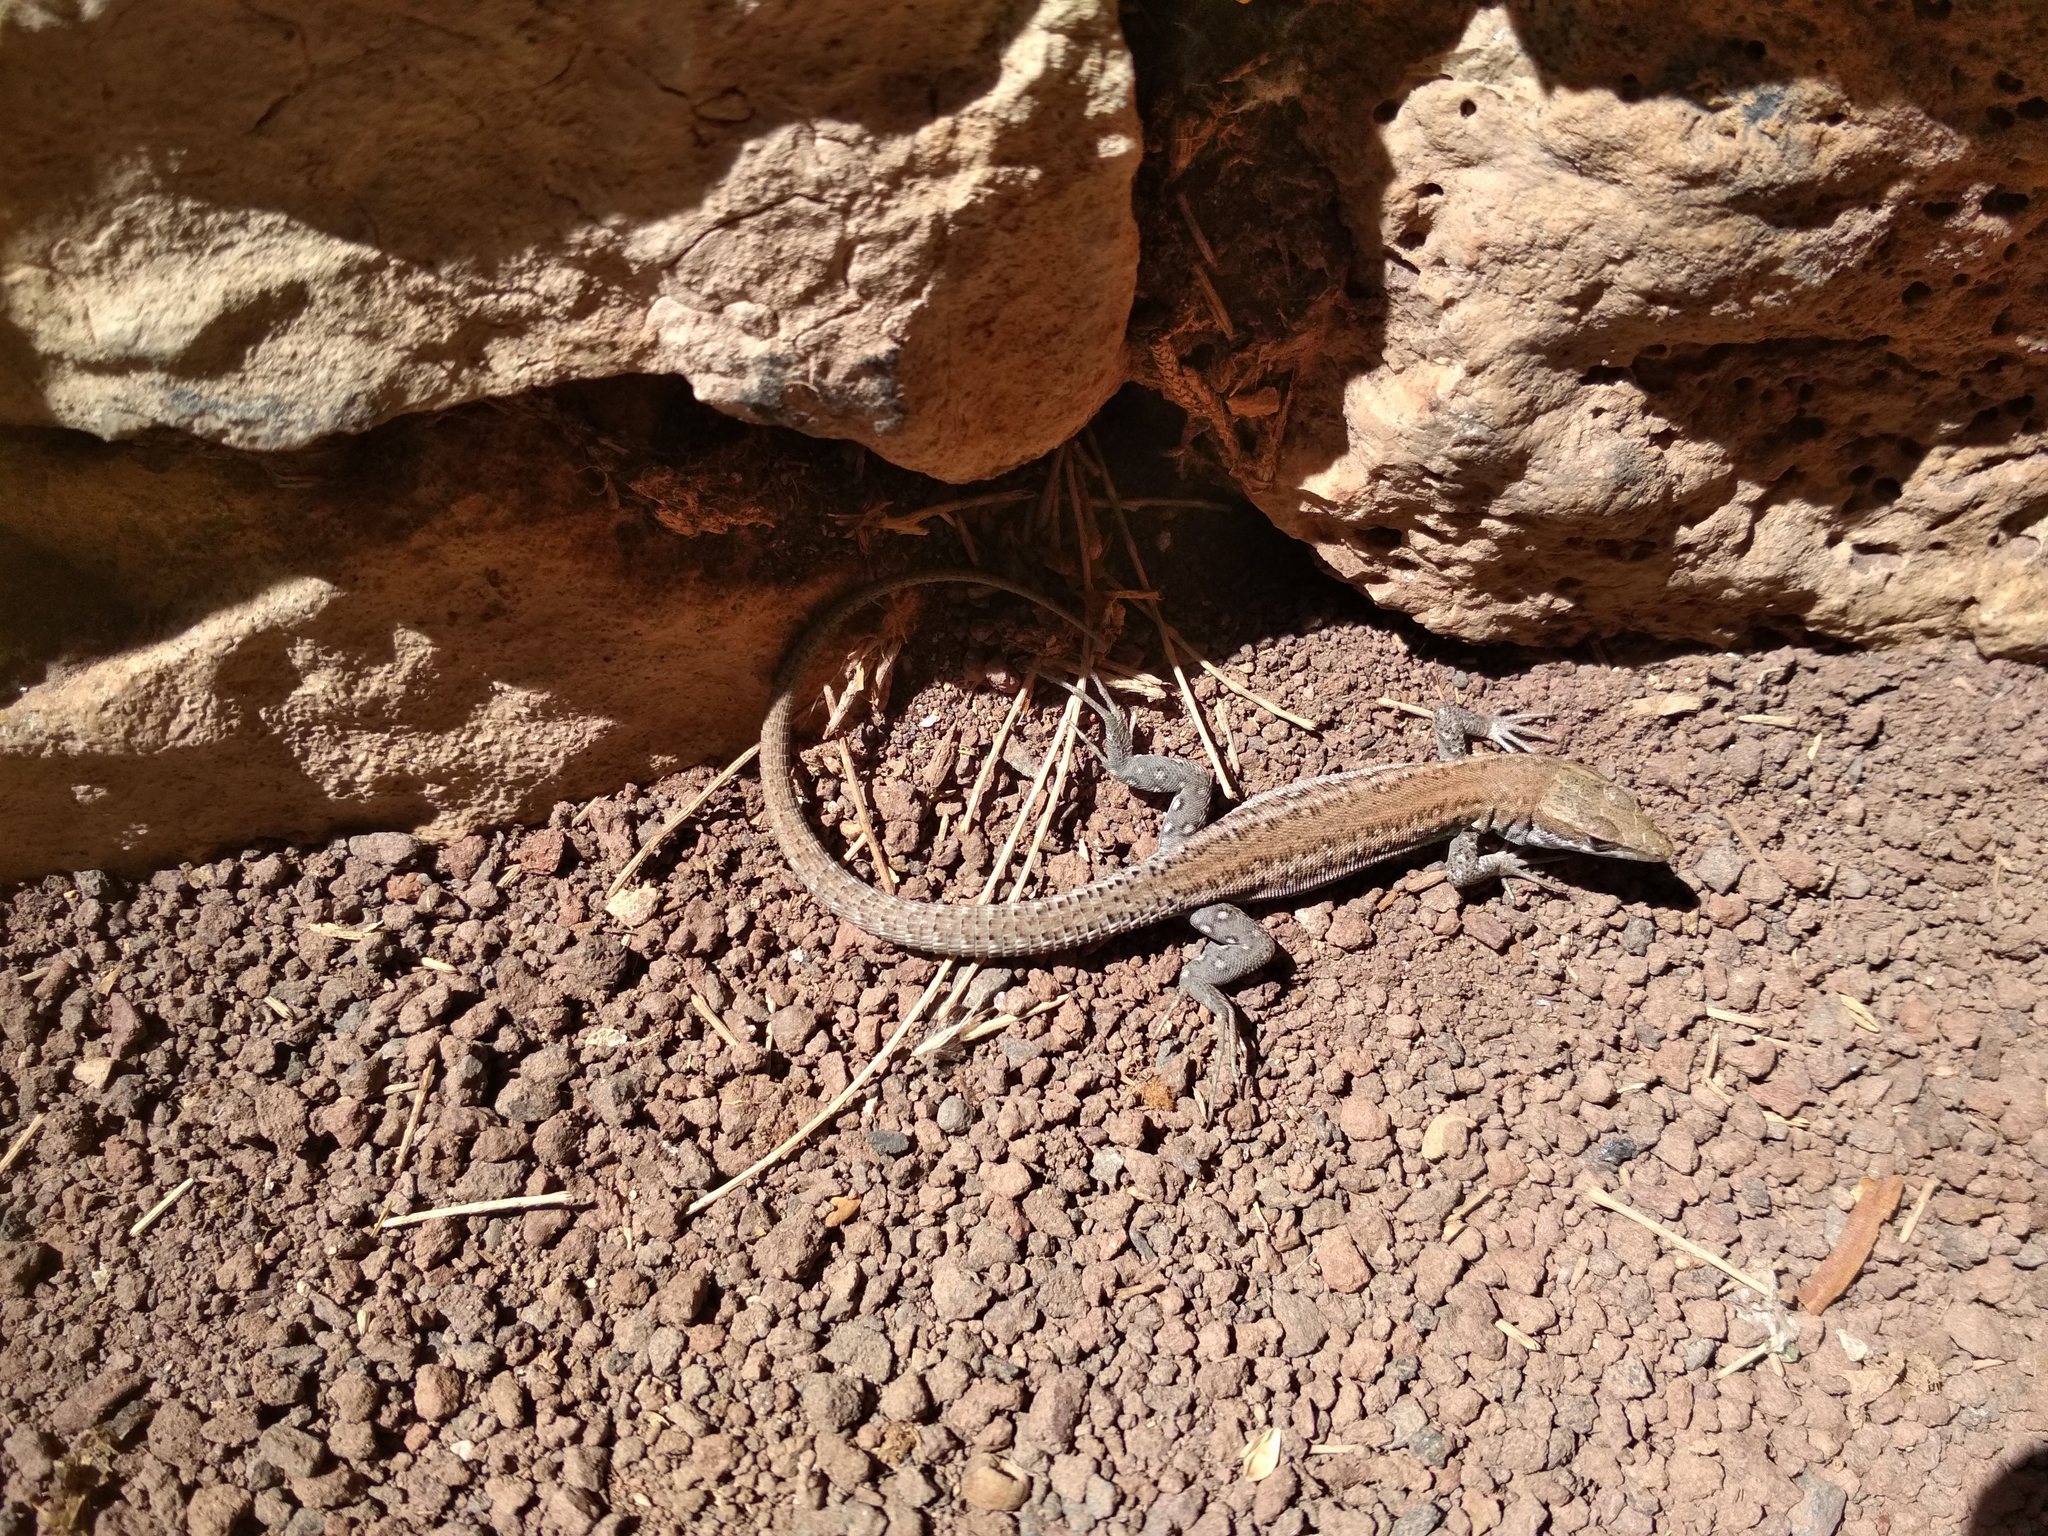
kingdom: Animalia
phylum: Chordata
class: Squamata
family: Lacertidae
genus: Gallotia
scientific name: Gallotia atlantica
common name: Atlantic lizard
